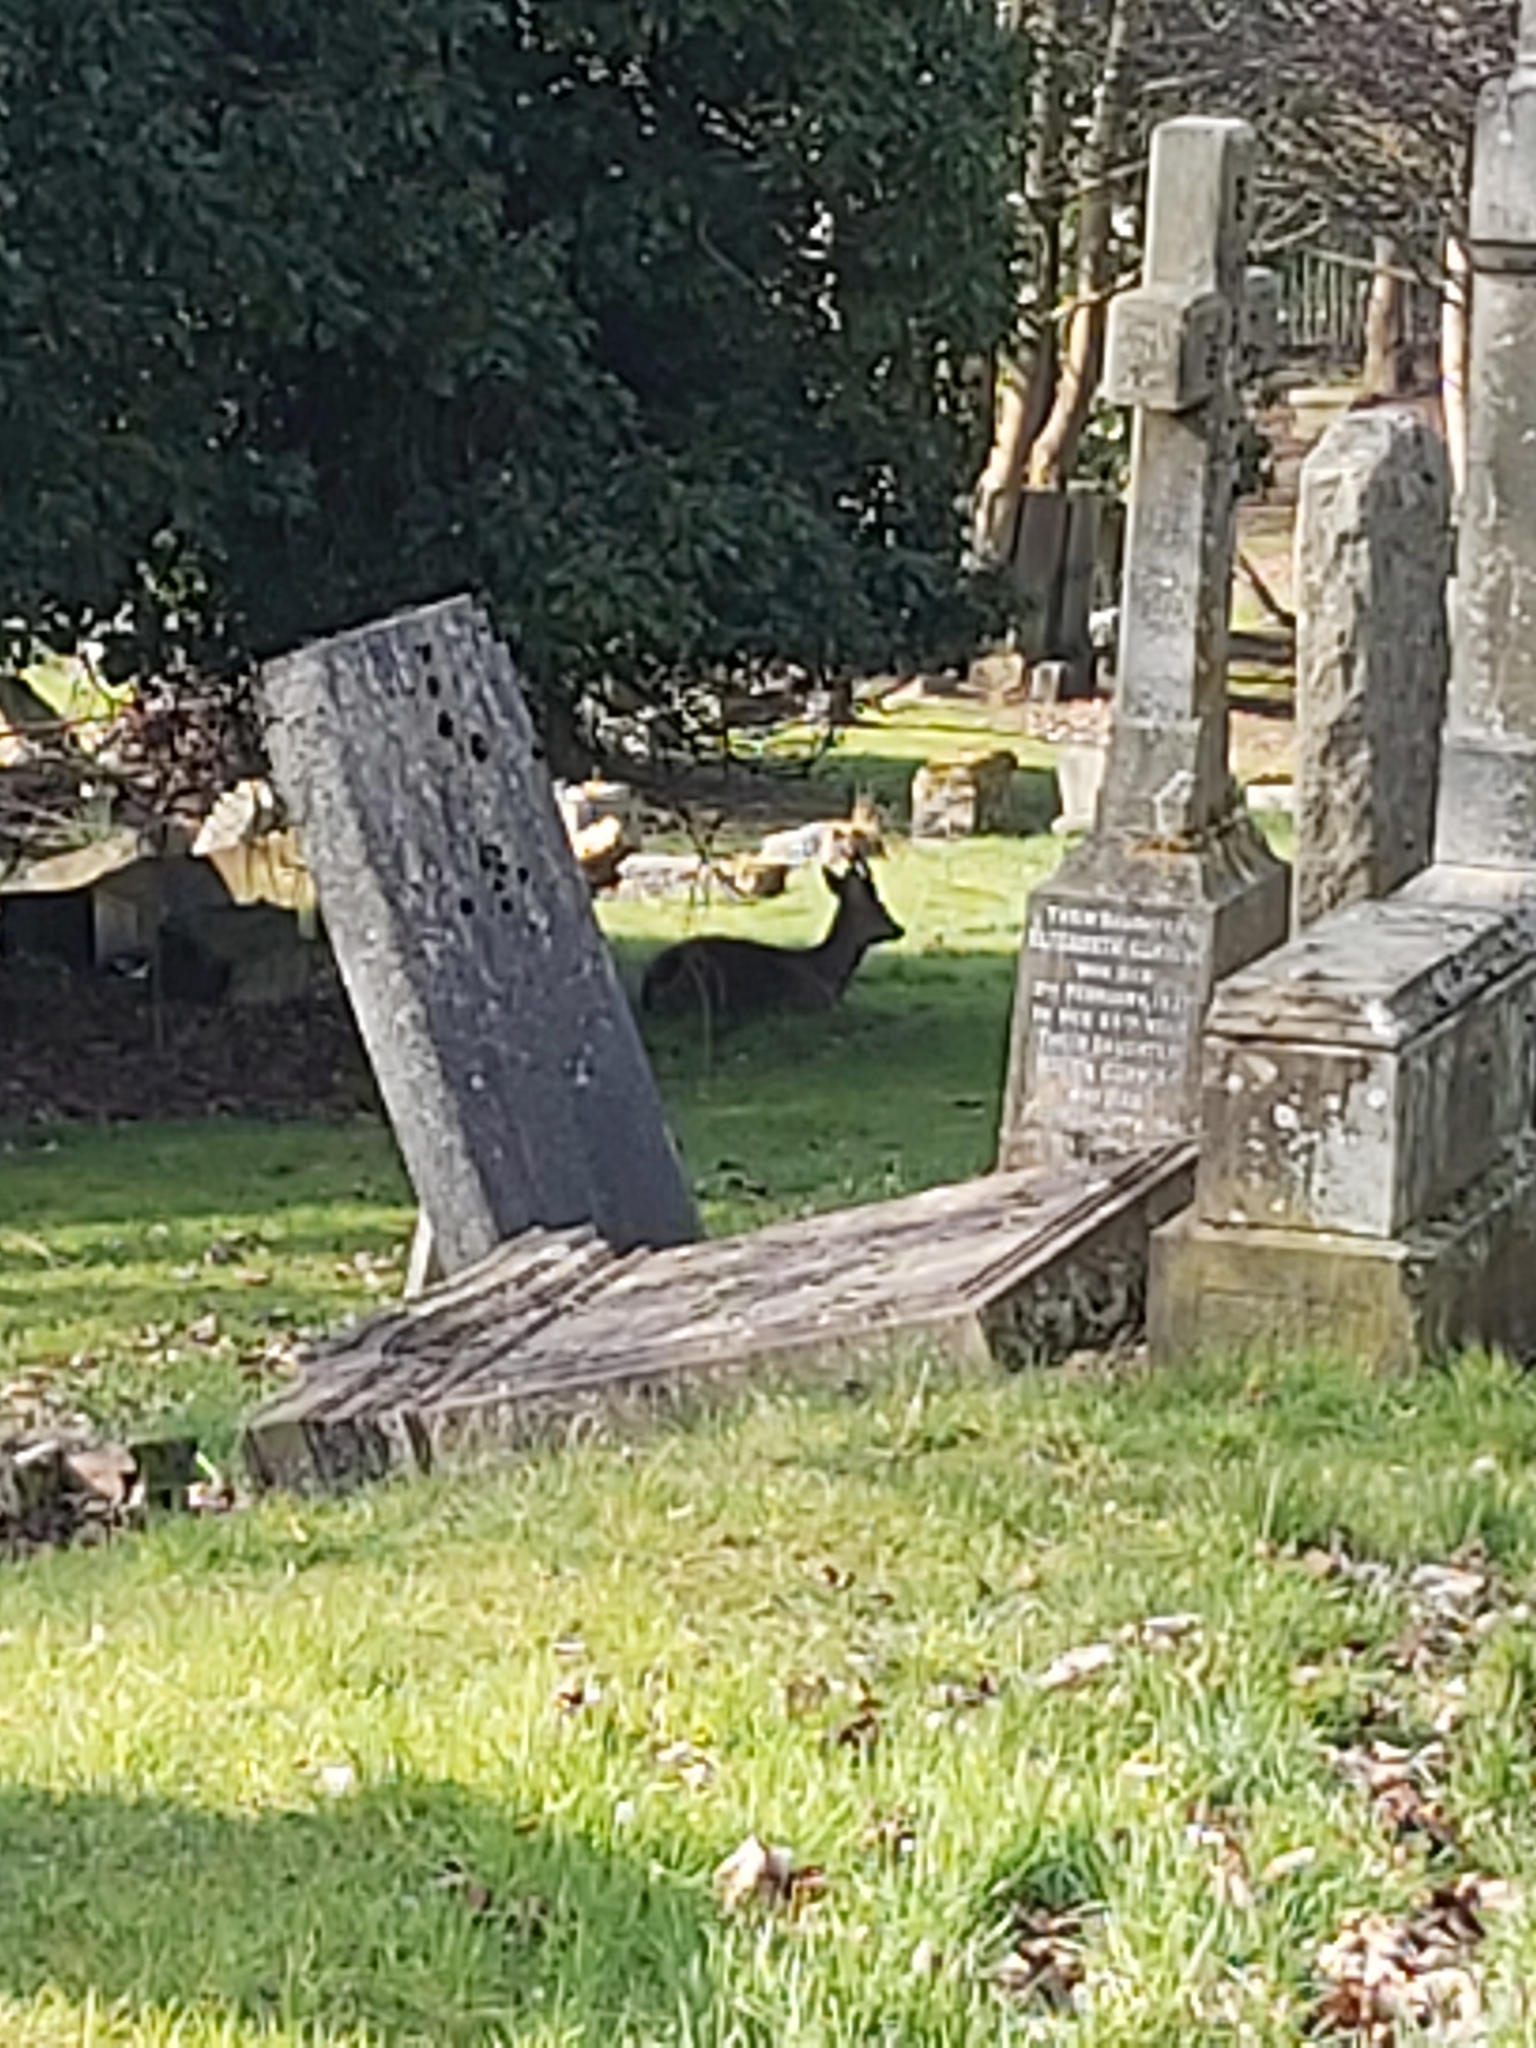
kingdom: Animalia
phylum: Chordata
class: Mammalia
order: Artiodactyla
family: Cervidae
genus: Capreolus
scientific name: Capreolus capreolus
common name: Western roe deer
